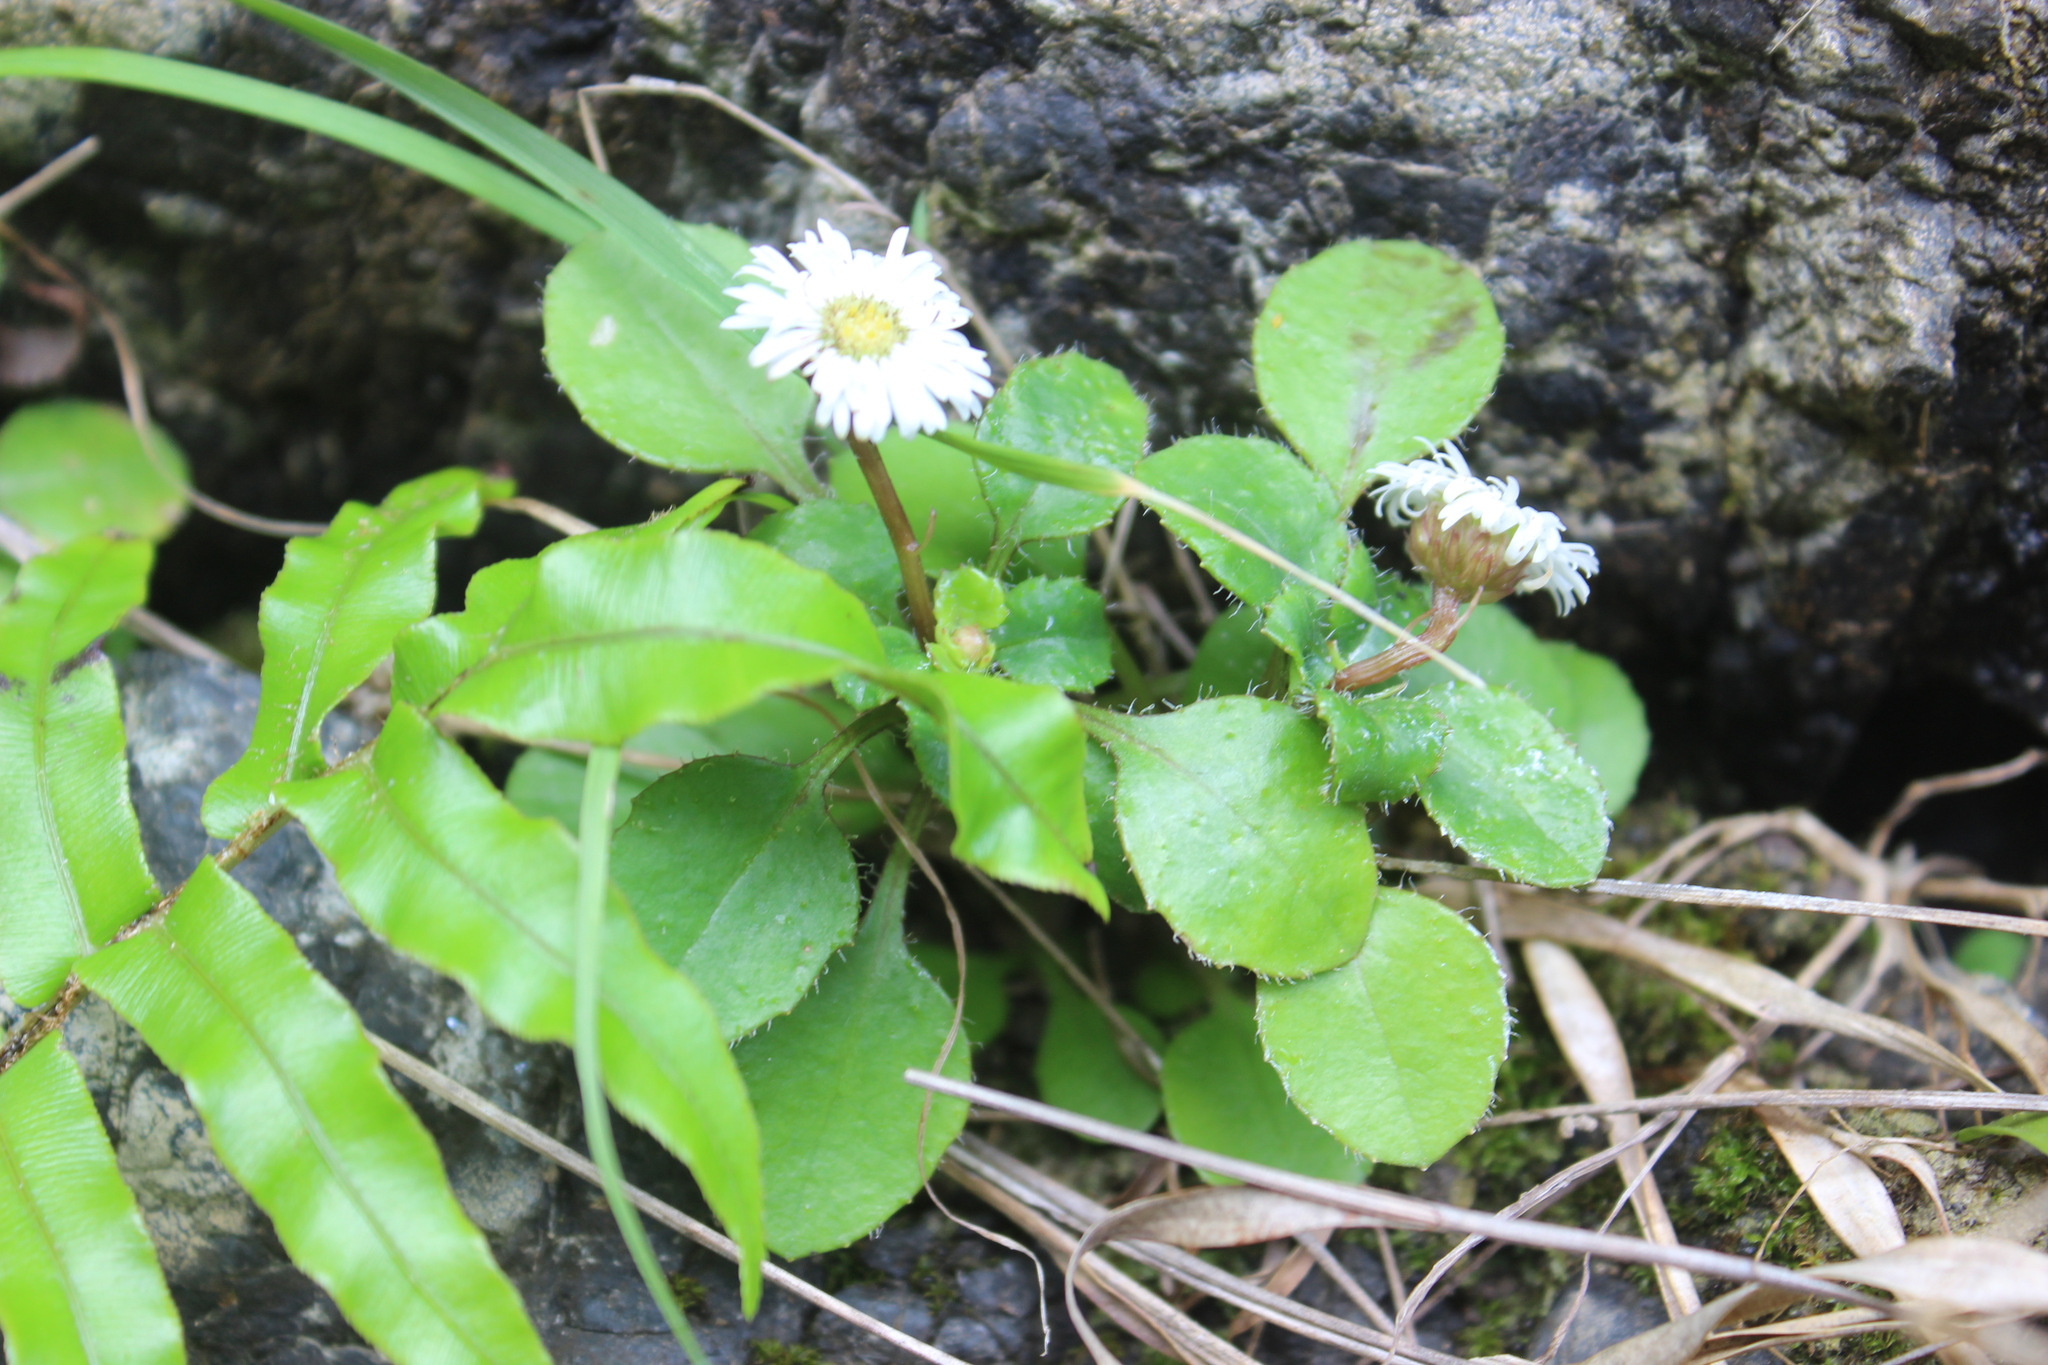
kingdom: Plantae
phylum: Tracheophyta
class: Magnoliopsida
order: Asterales
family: Asteraceae
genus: Lagenophora
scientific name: Lagenophora pumila
